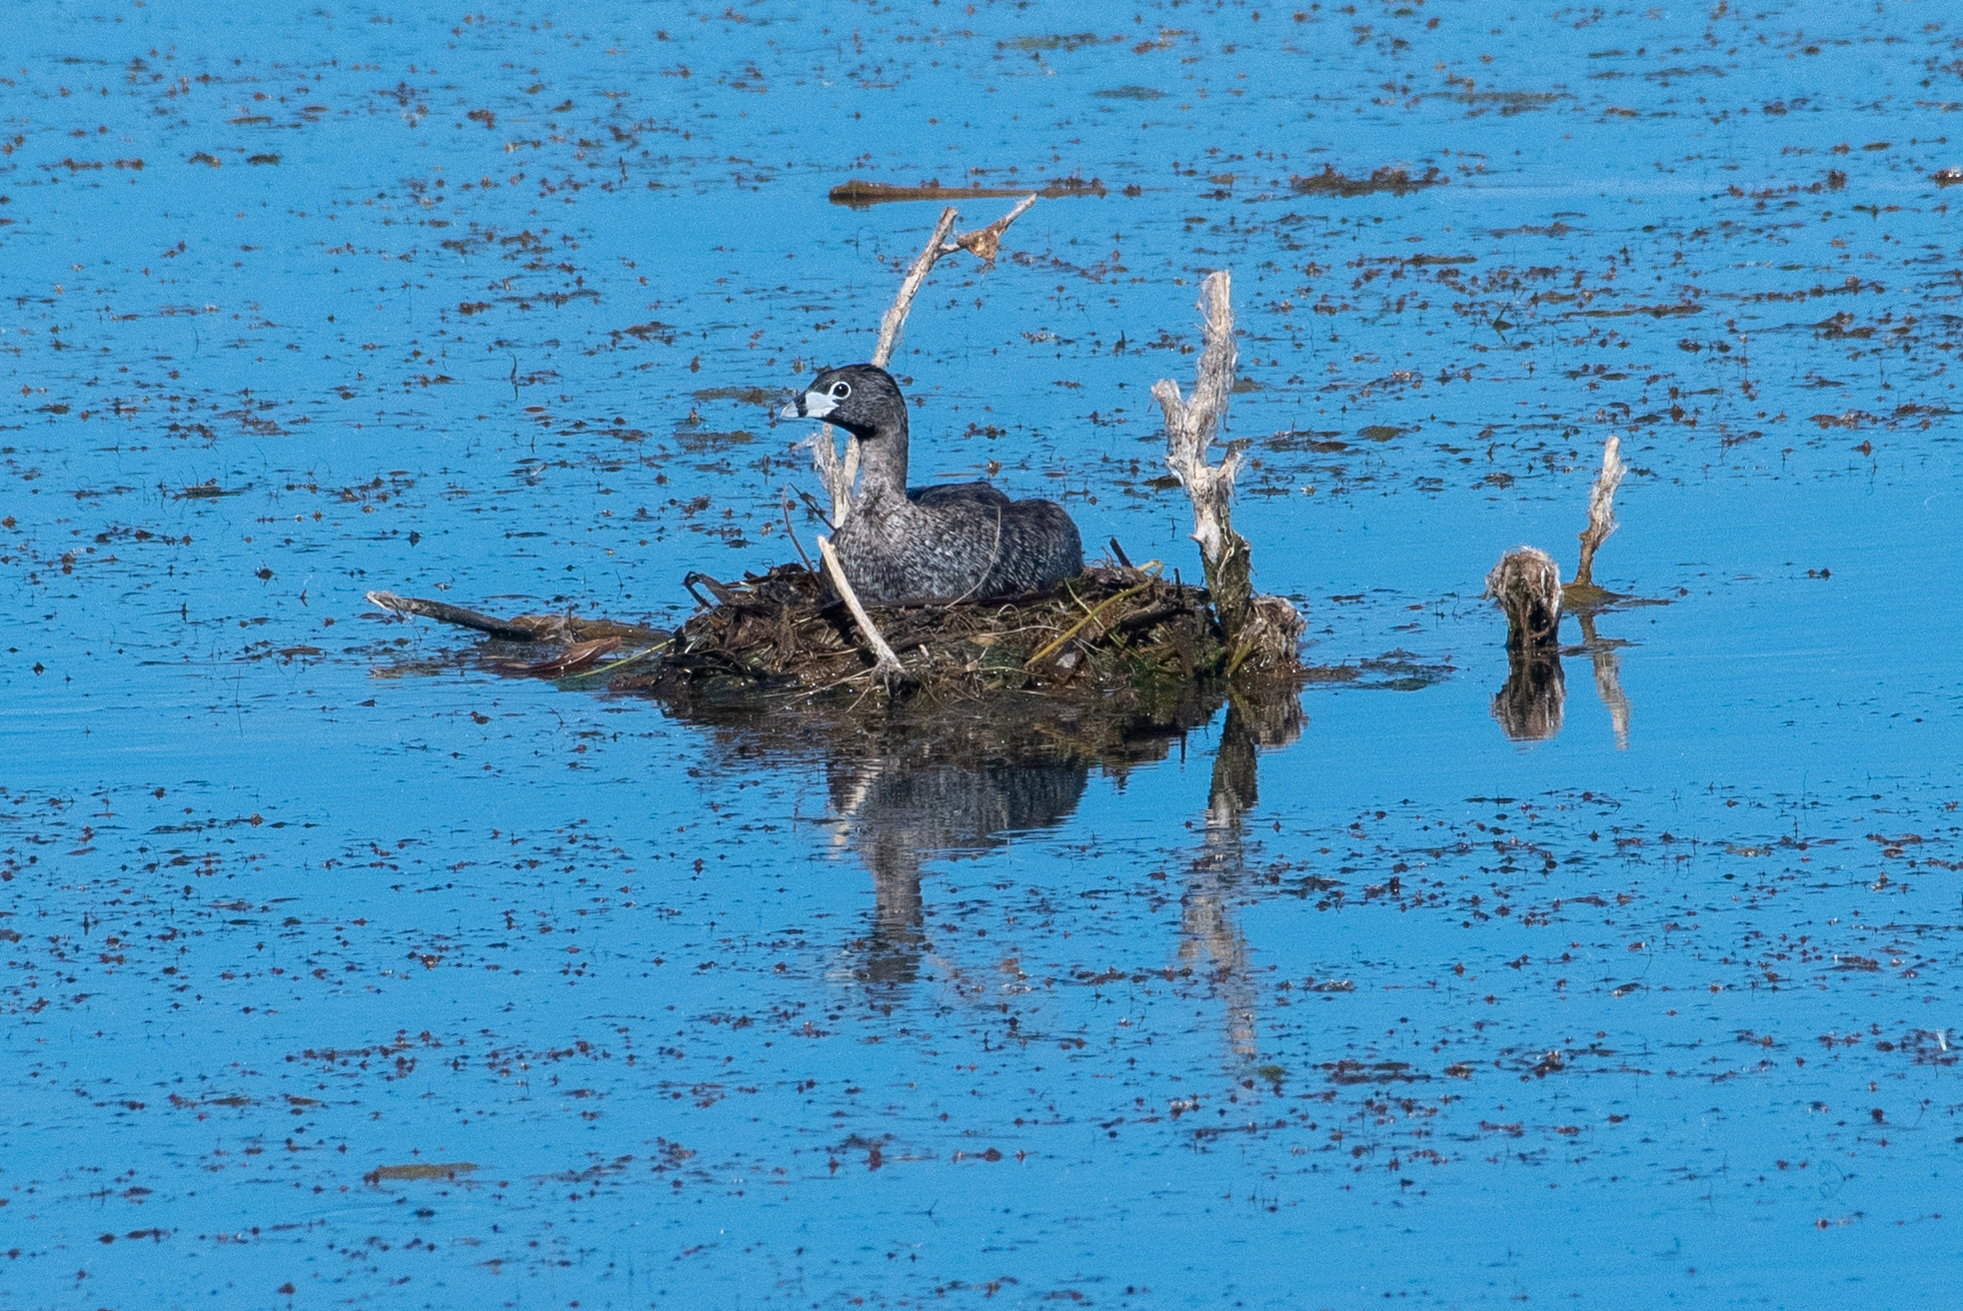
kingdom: Animalia
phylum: Chordata
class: Aves
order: Podicipediformes
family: Podicipedidae
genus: Podilymbus
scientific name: Podilymbus podiceps
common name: Pied-billed grebe
